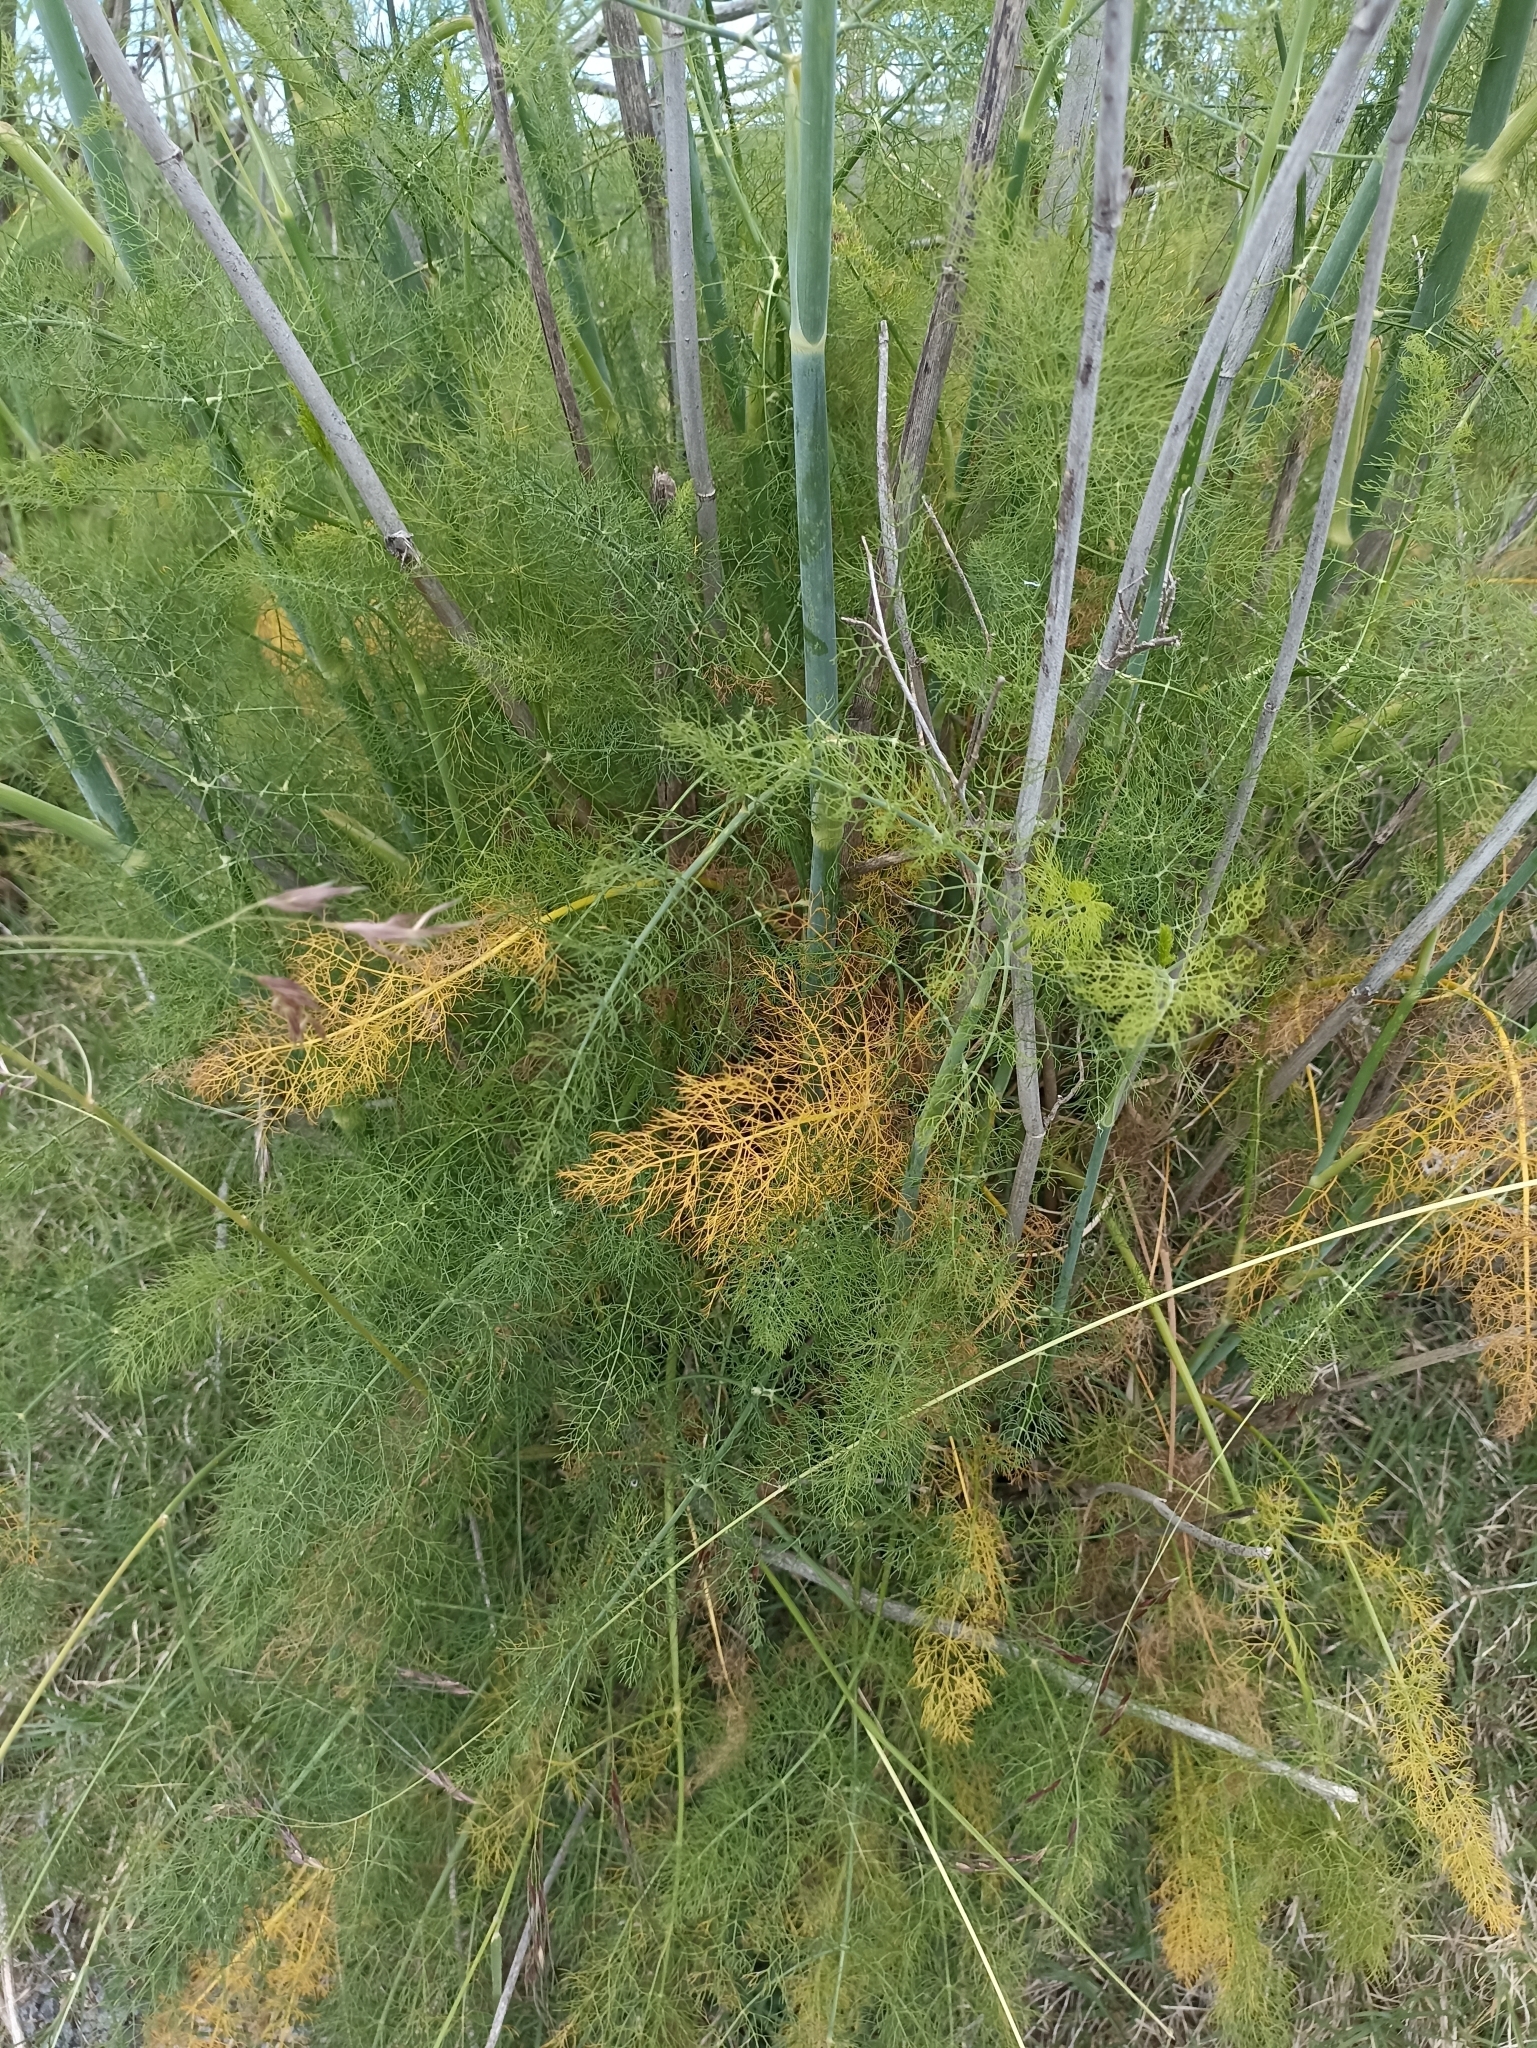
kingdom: Plantae
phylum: Tracheophyta
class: Magnoliopsida
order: Apiales
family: Apiaceae
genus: Foeniculum
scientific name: Foeniculum vulgare
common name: Fennel
